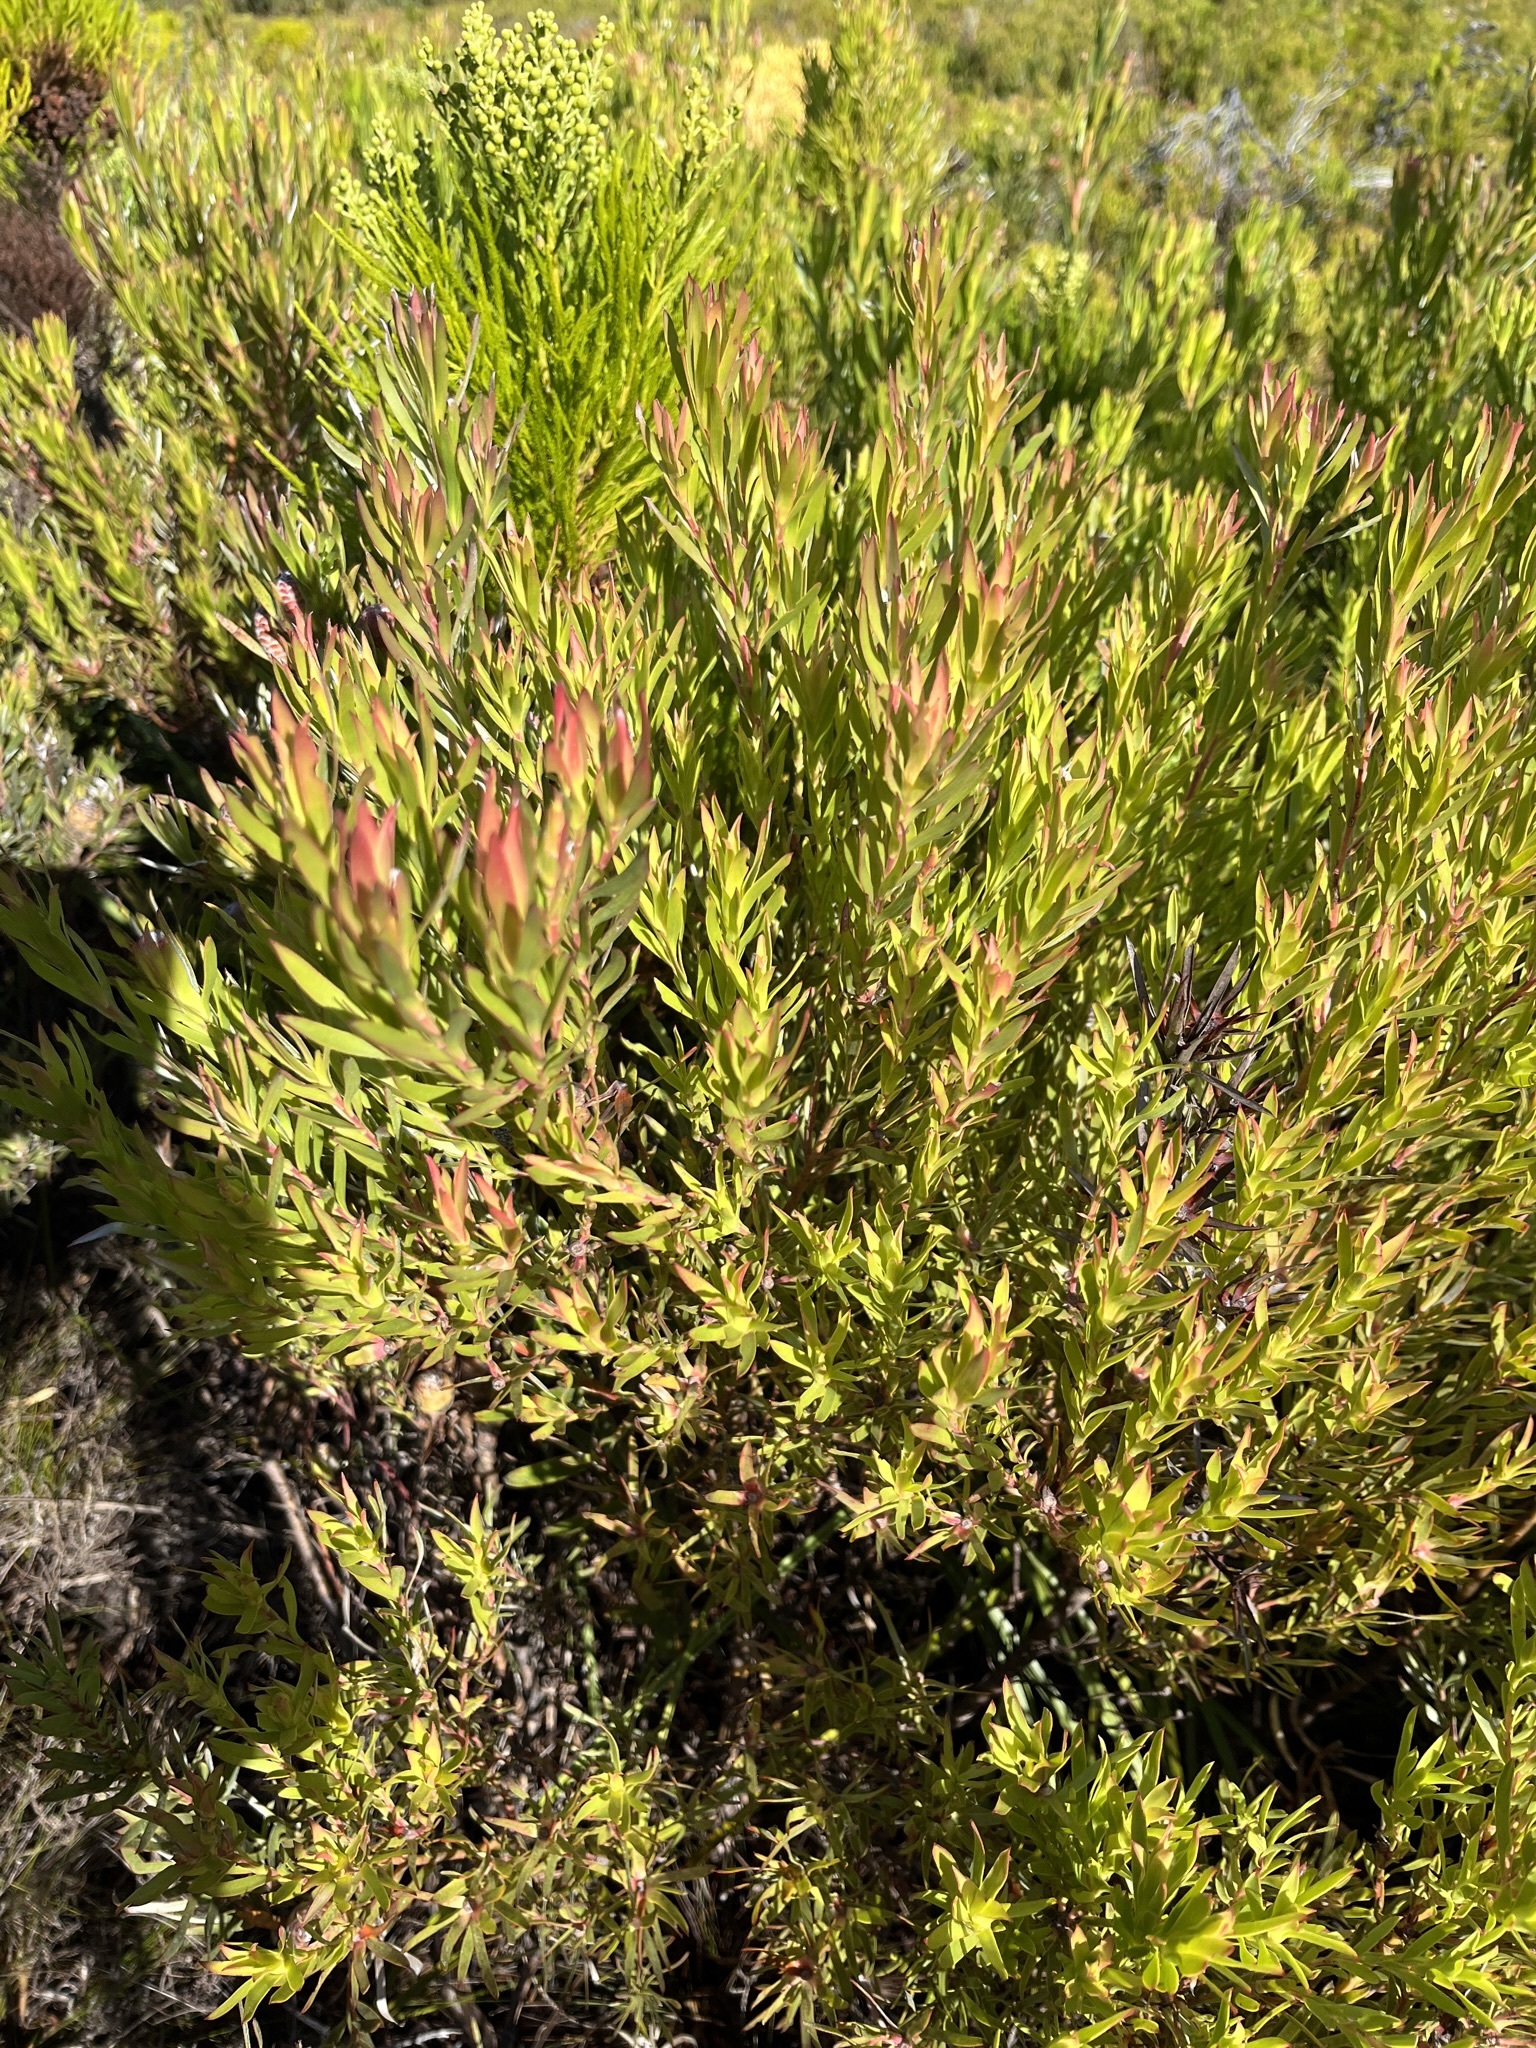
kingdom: Plantae
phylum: Tracheophyta
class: Magnoliopsida
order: Proteales
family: Proteaceae
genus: Leucadendron
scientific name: Leucadendron xanthoconus
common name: Sickle-leaf conebush
